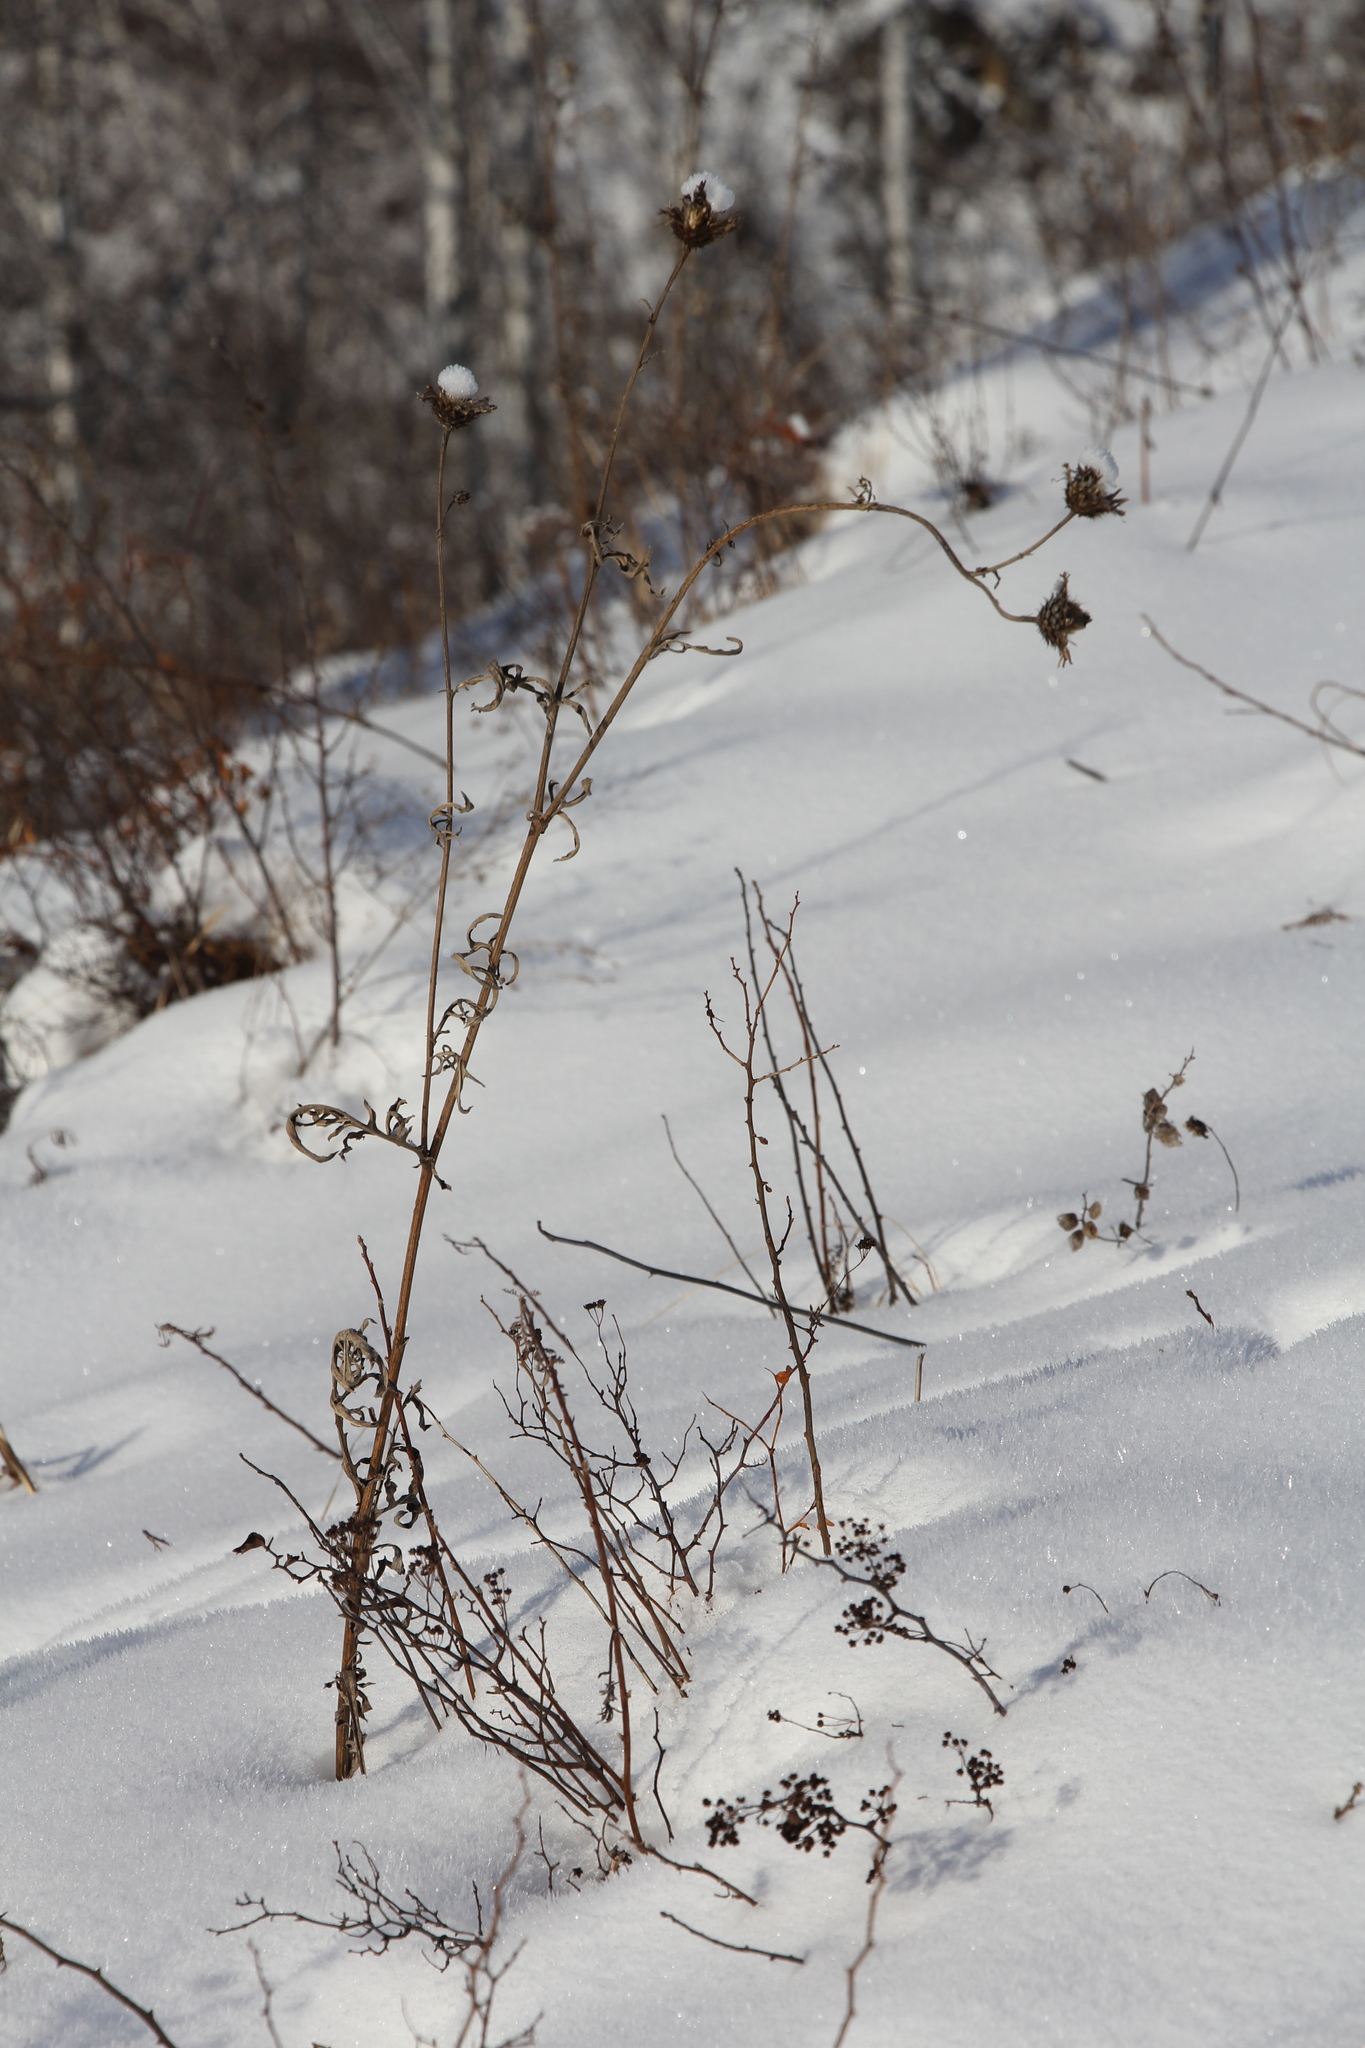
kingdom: Plantae
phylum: Tracheophyta
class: Magnoliopsida
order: Asterales
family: Asteraceae
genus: Centaurea
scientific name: Centaurea scabiosa
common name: Greater knapweed
